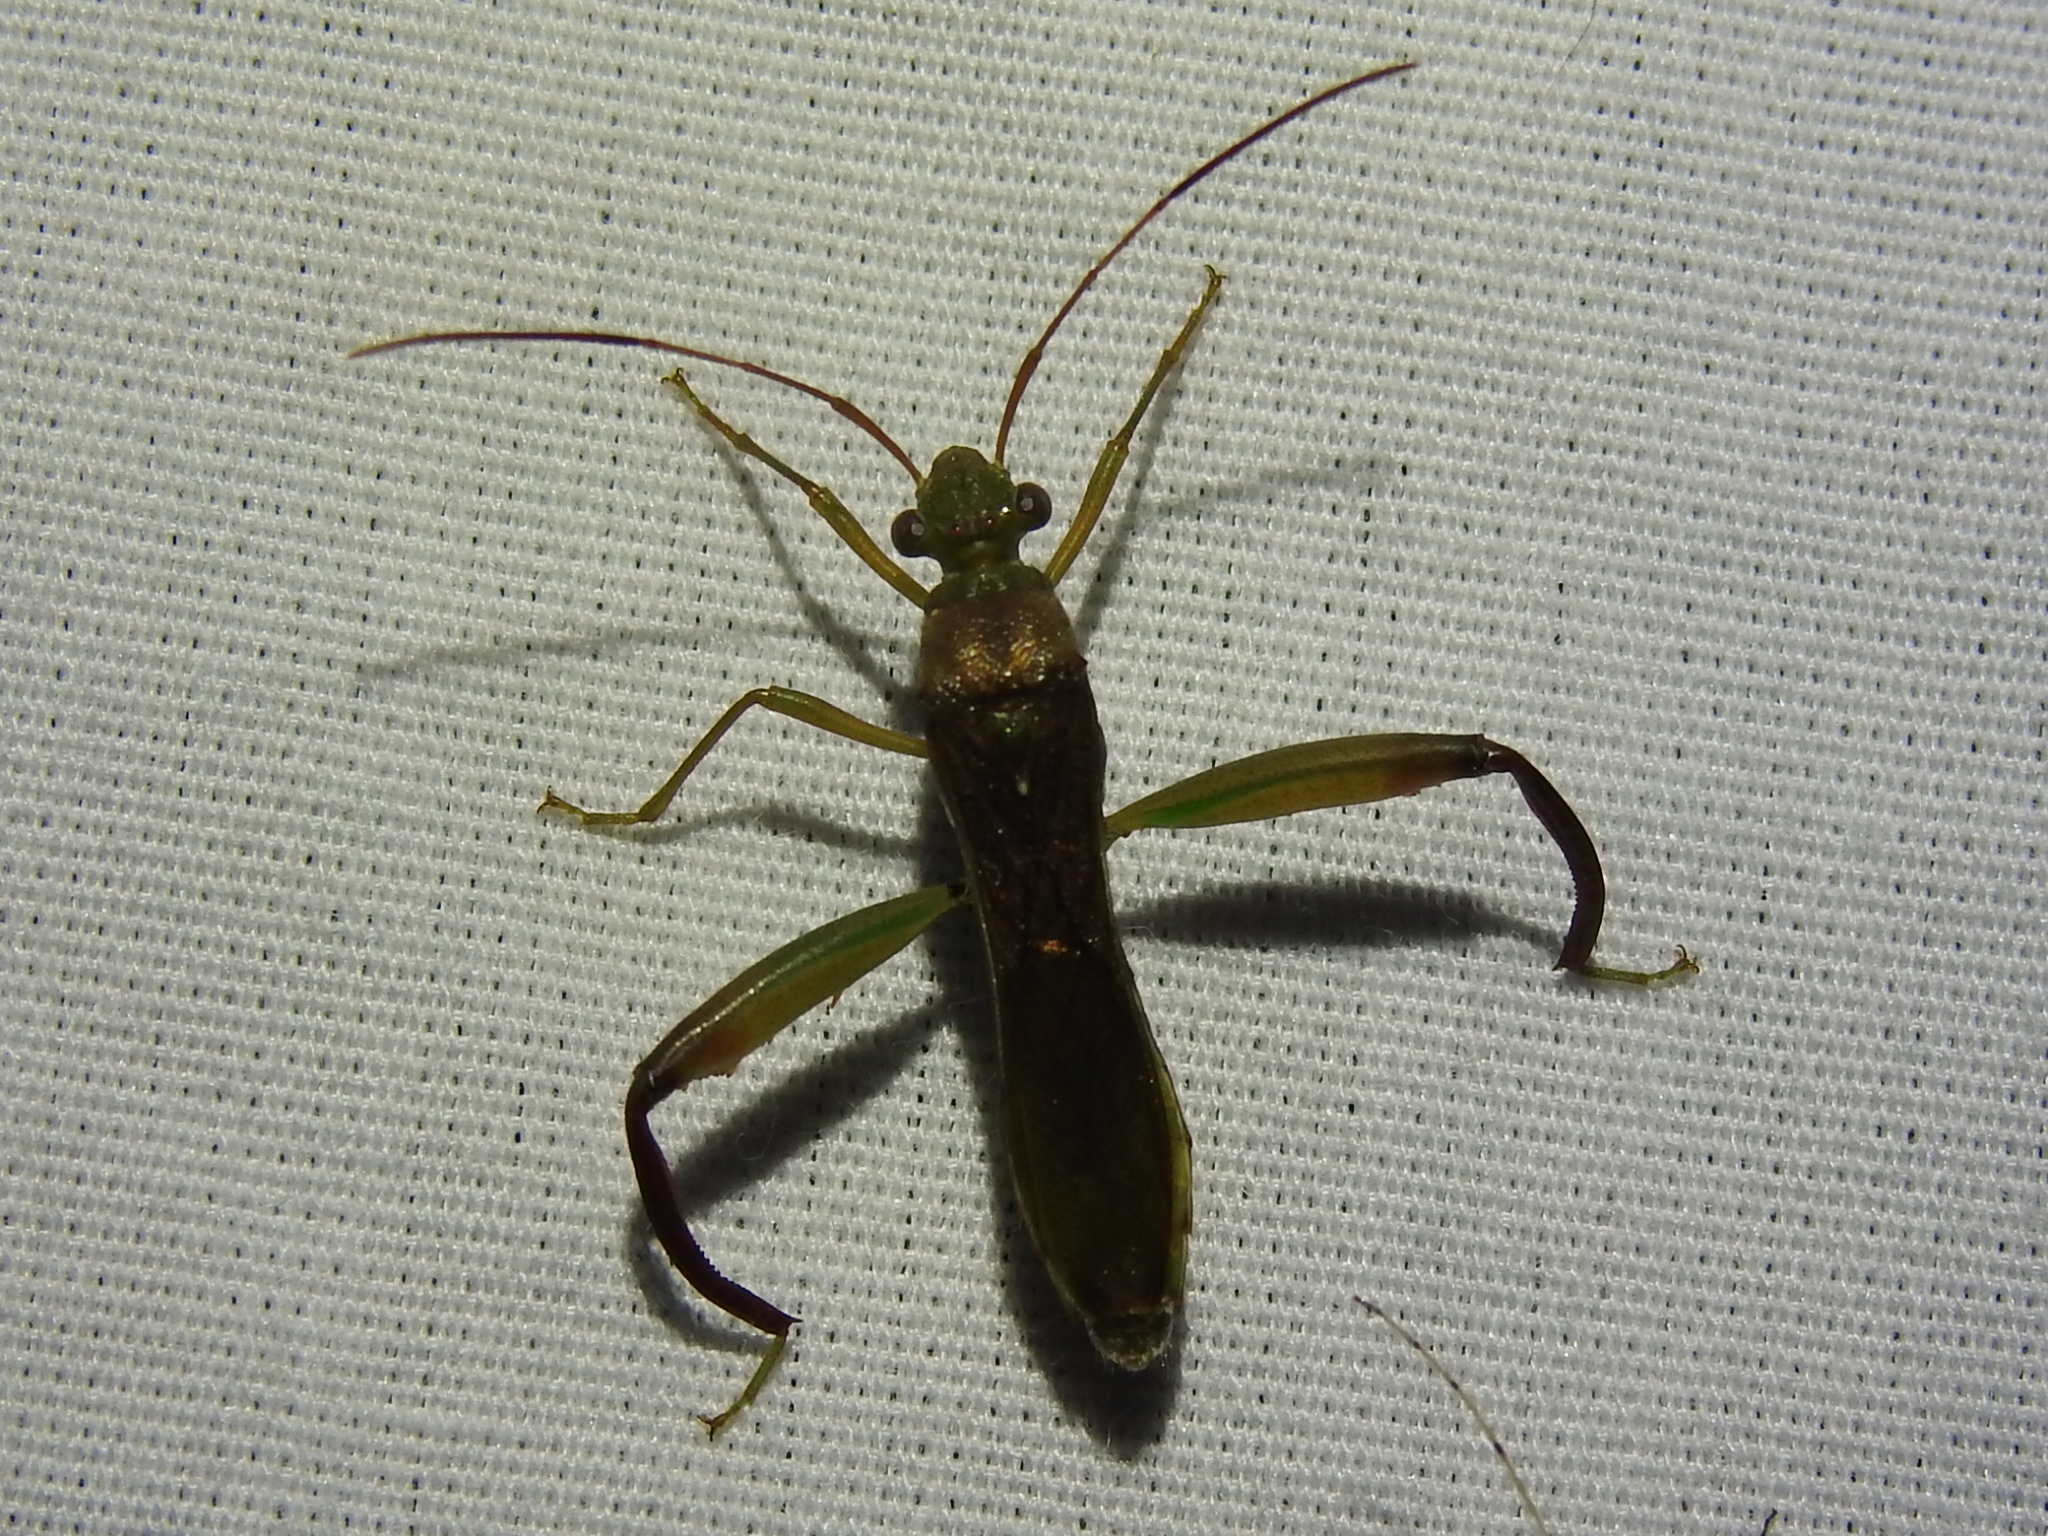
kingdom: Animalia
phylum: Arthropoda
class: Insecta
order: Hemiptera
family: Alydidae
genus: Hyalymenus
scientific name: Hyalymenus tarsatus
